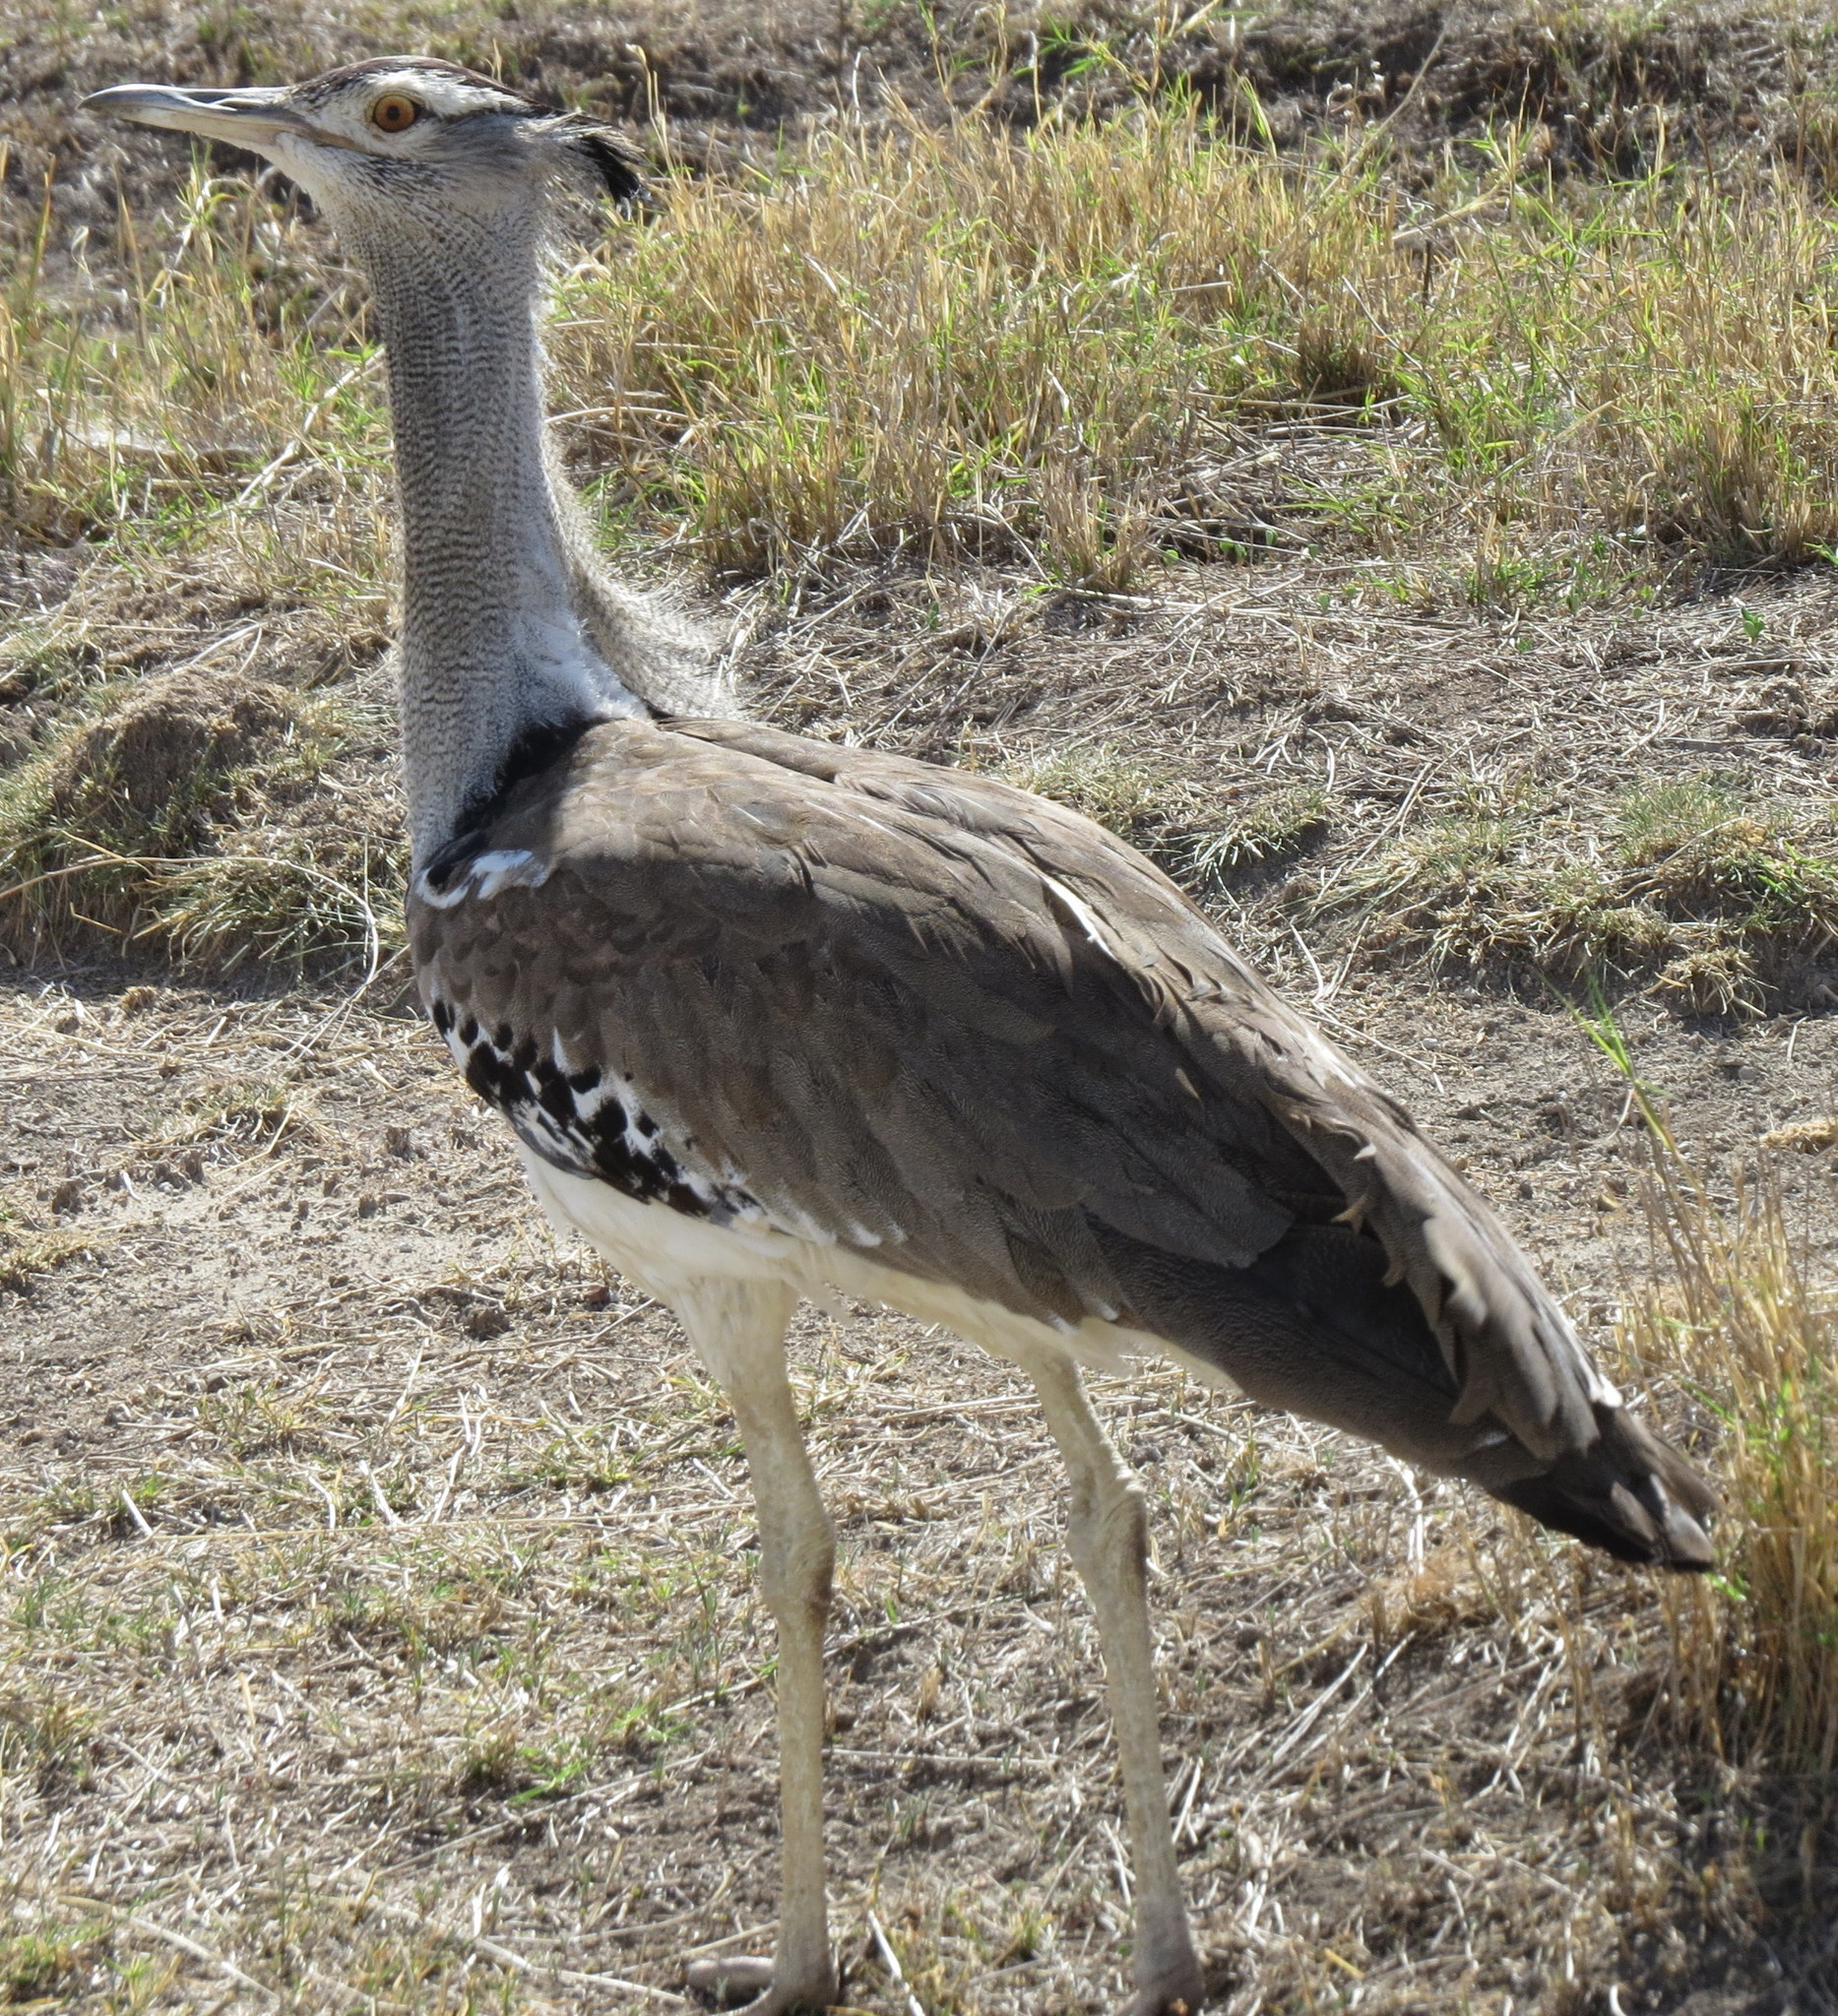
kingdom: Animalia
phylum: Chordata
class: Aves
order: Otidiformes
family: Otididae
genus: Ardeotis
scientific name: Ardeotis kori
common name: Kori bustard
